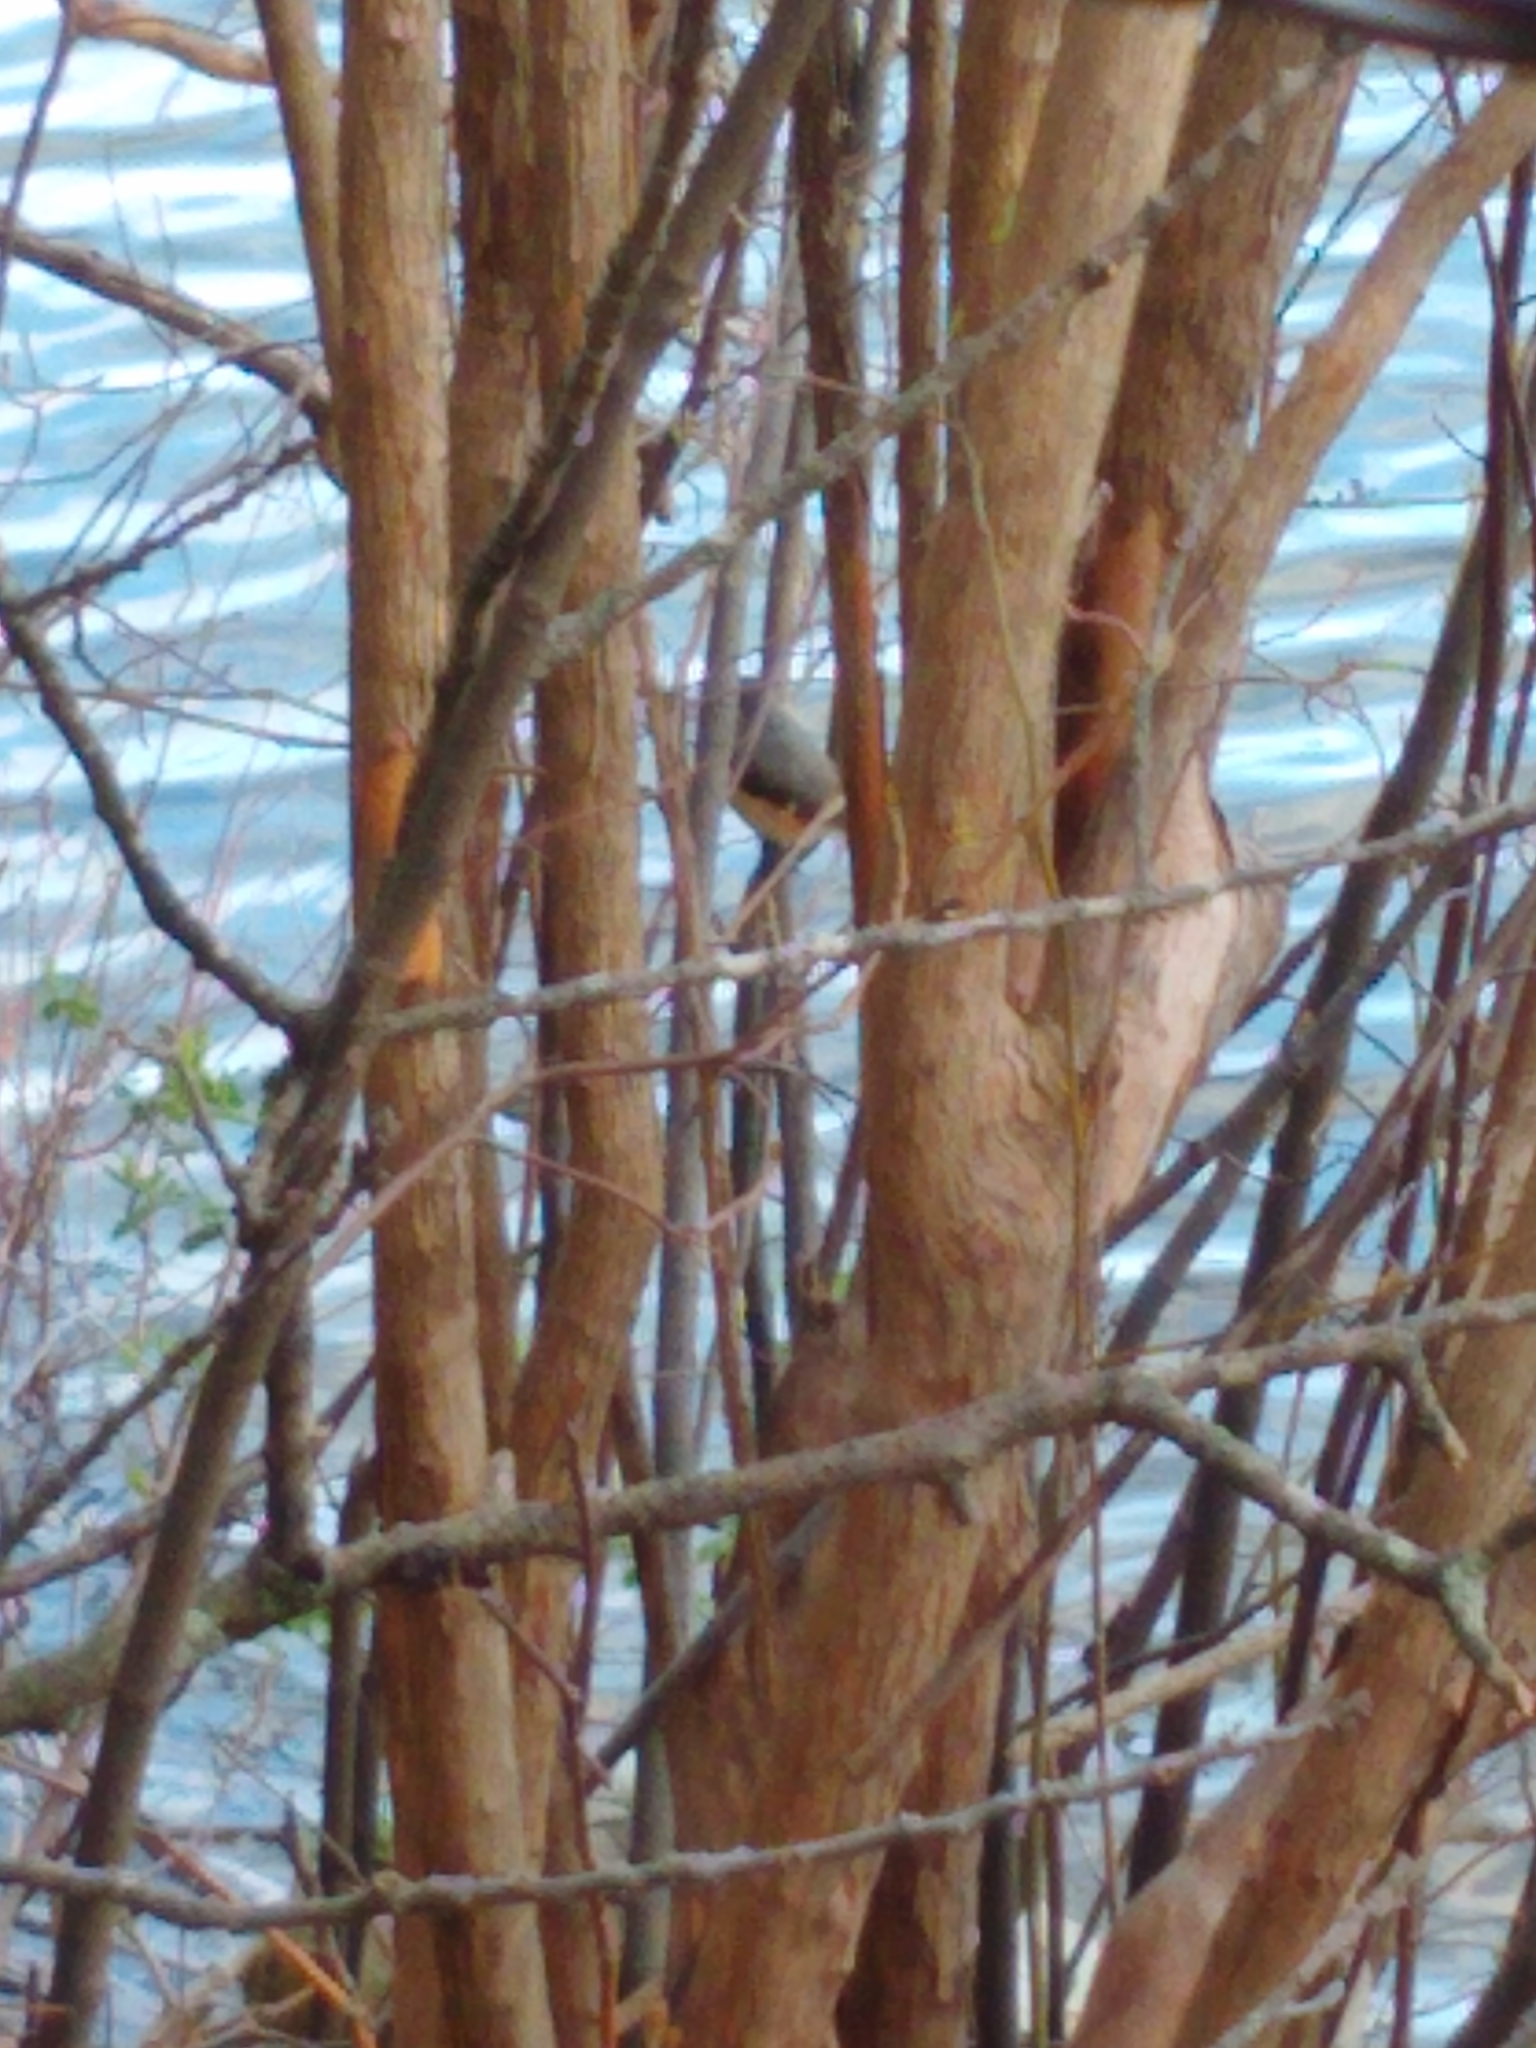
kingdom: Animalia
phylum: Chordata
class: Aves
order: Passeriformes
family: Paridae
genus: Baeolophus
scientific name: Baeolophus bicolor
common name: Tufted titmouse
